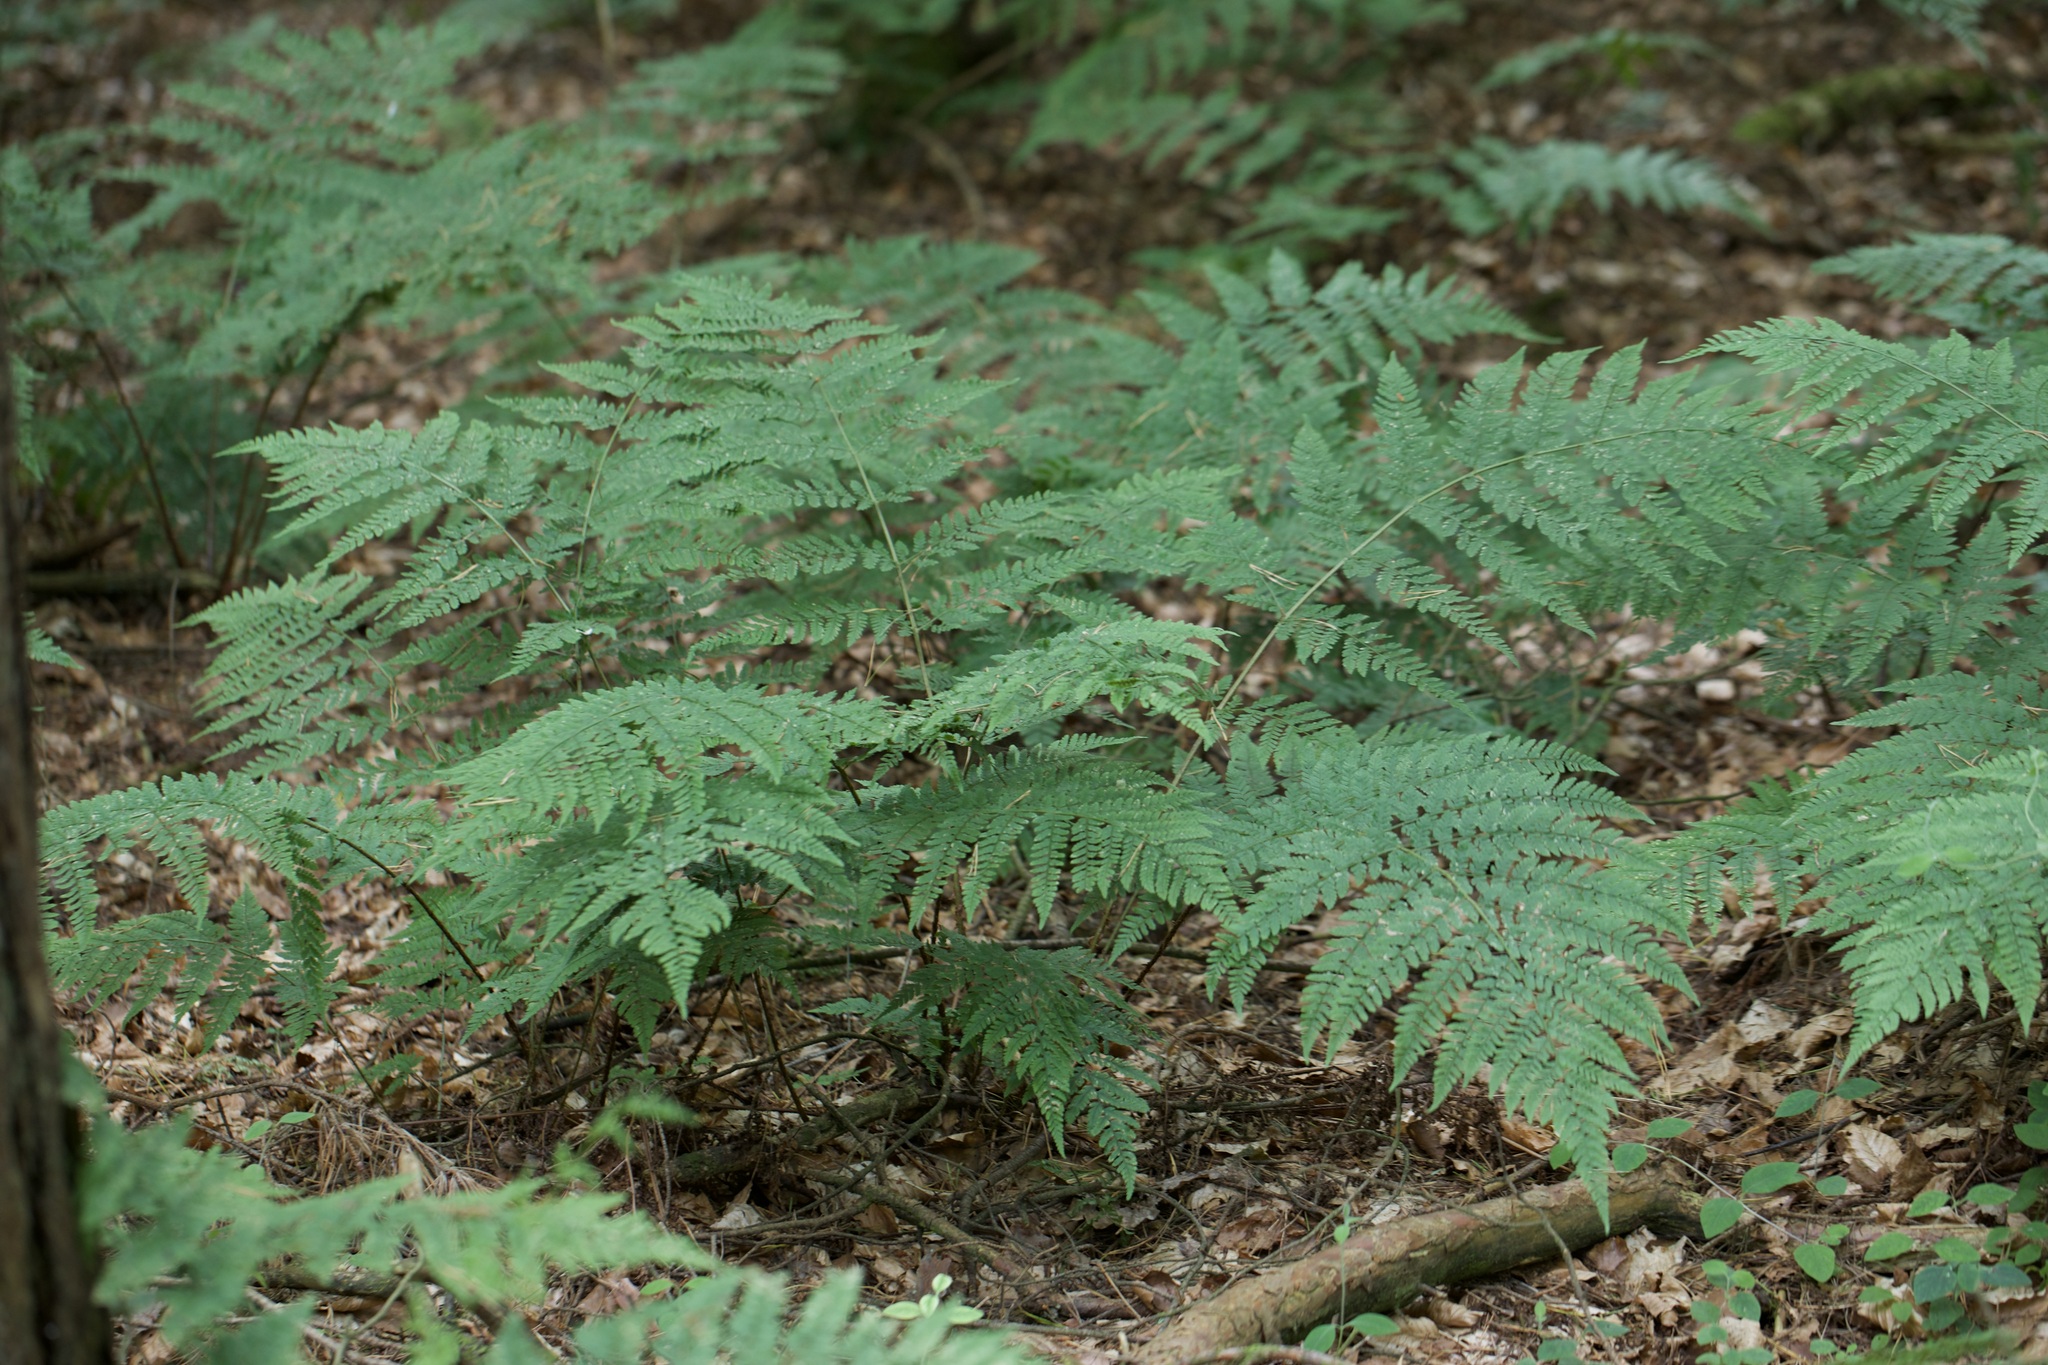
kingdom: Plantae
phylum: Tracheophyta
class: Polypodiopsida
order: Polypodiales
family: Dryopteridaceae
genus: Dryopteris
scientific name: Dryopteris dilatata
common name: Broad buckler-fern
